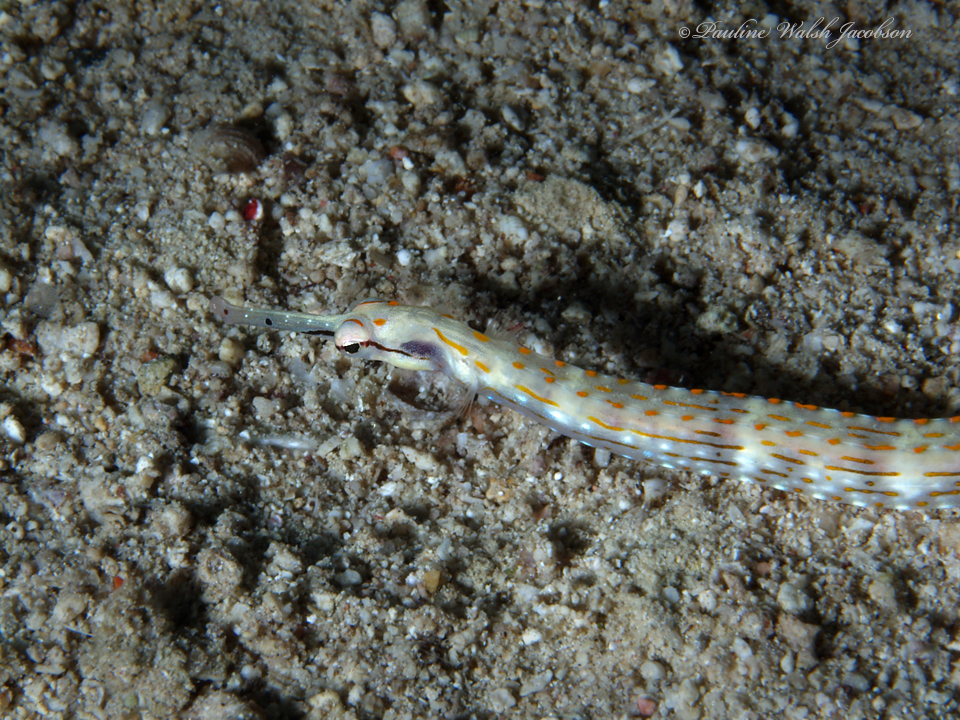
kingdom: Animalia
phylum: Chordata
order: Syngnathiformes
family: Syngnathidae
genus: Corythoichthys
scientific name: Corythoichthys schultzi
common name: Guilded pipefish
